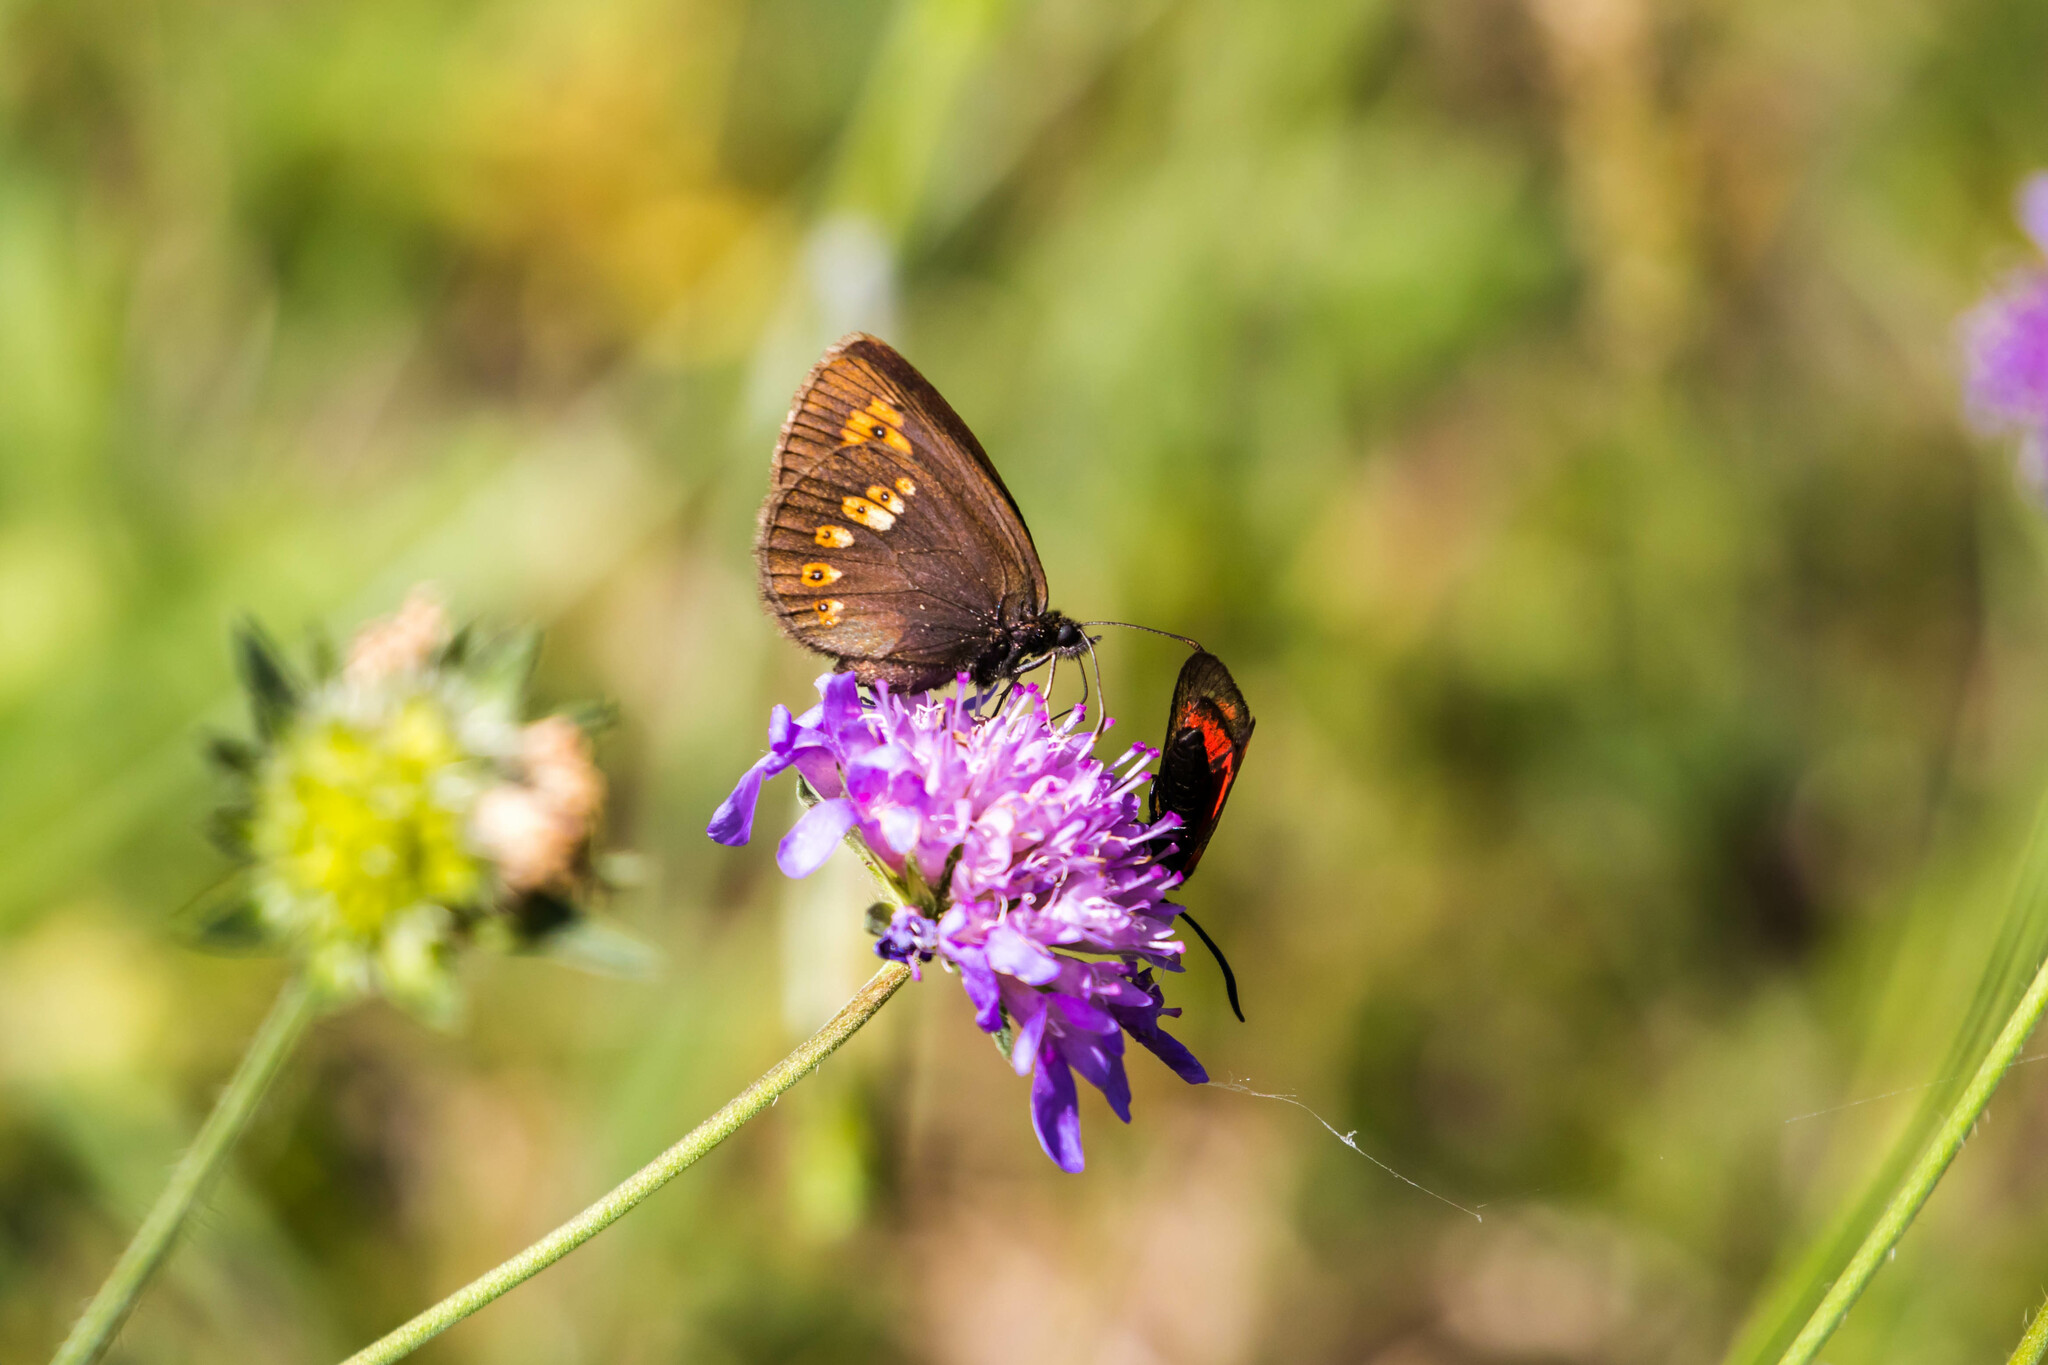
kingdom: Animalia
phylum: Arthropoda
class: Insecta
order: Lepidoptera
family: Nymphalidae
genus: Erebia
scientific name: Erebia alberganus
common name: Almond-eyed ringlet
